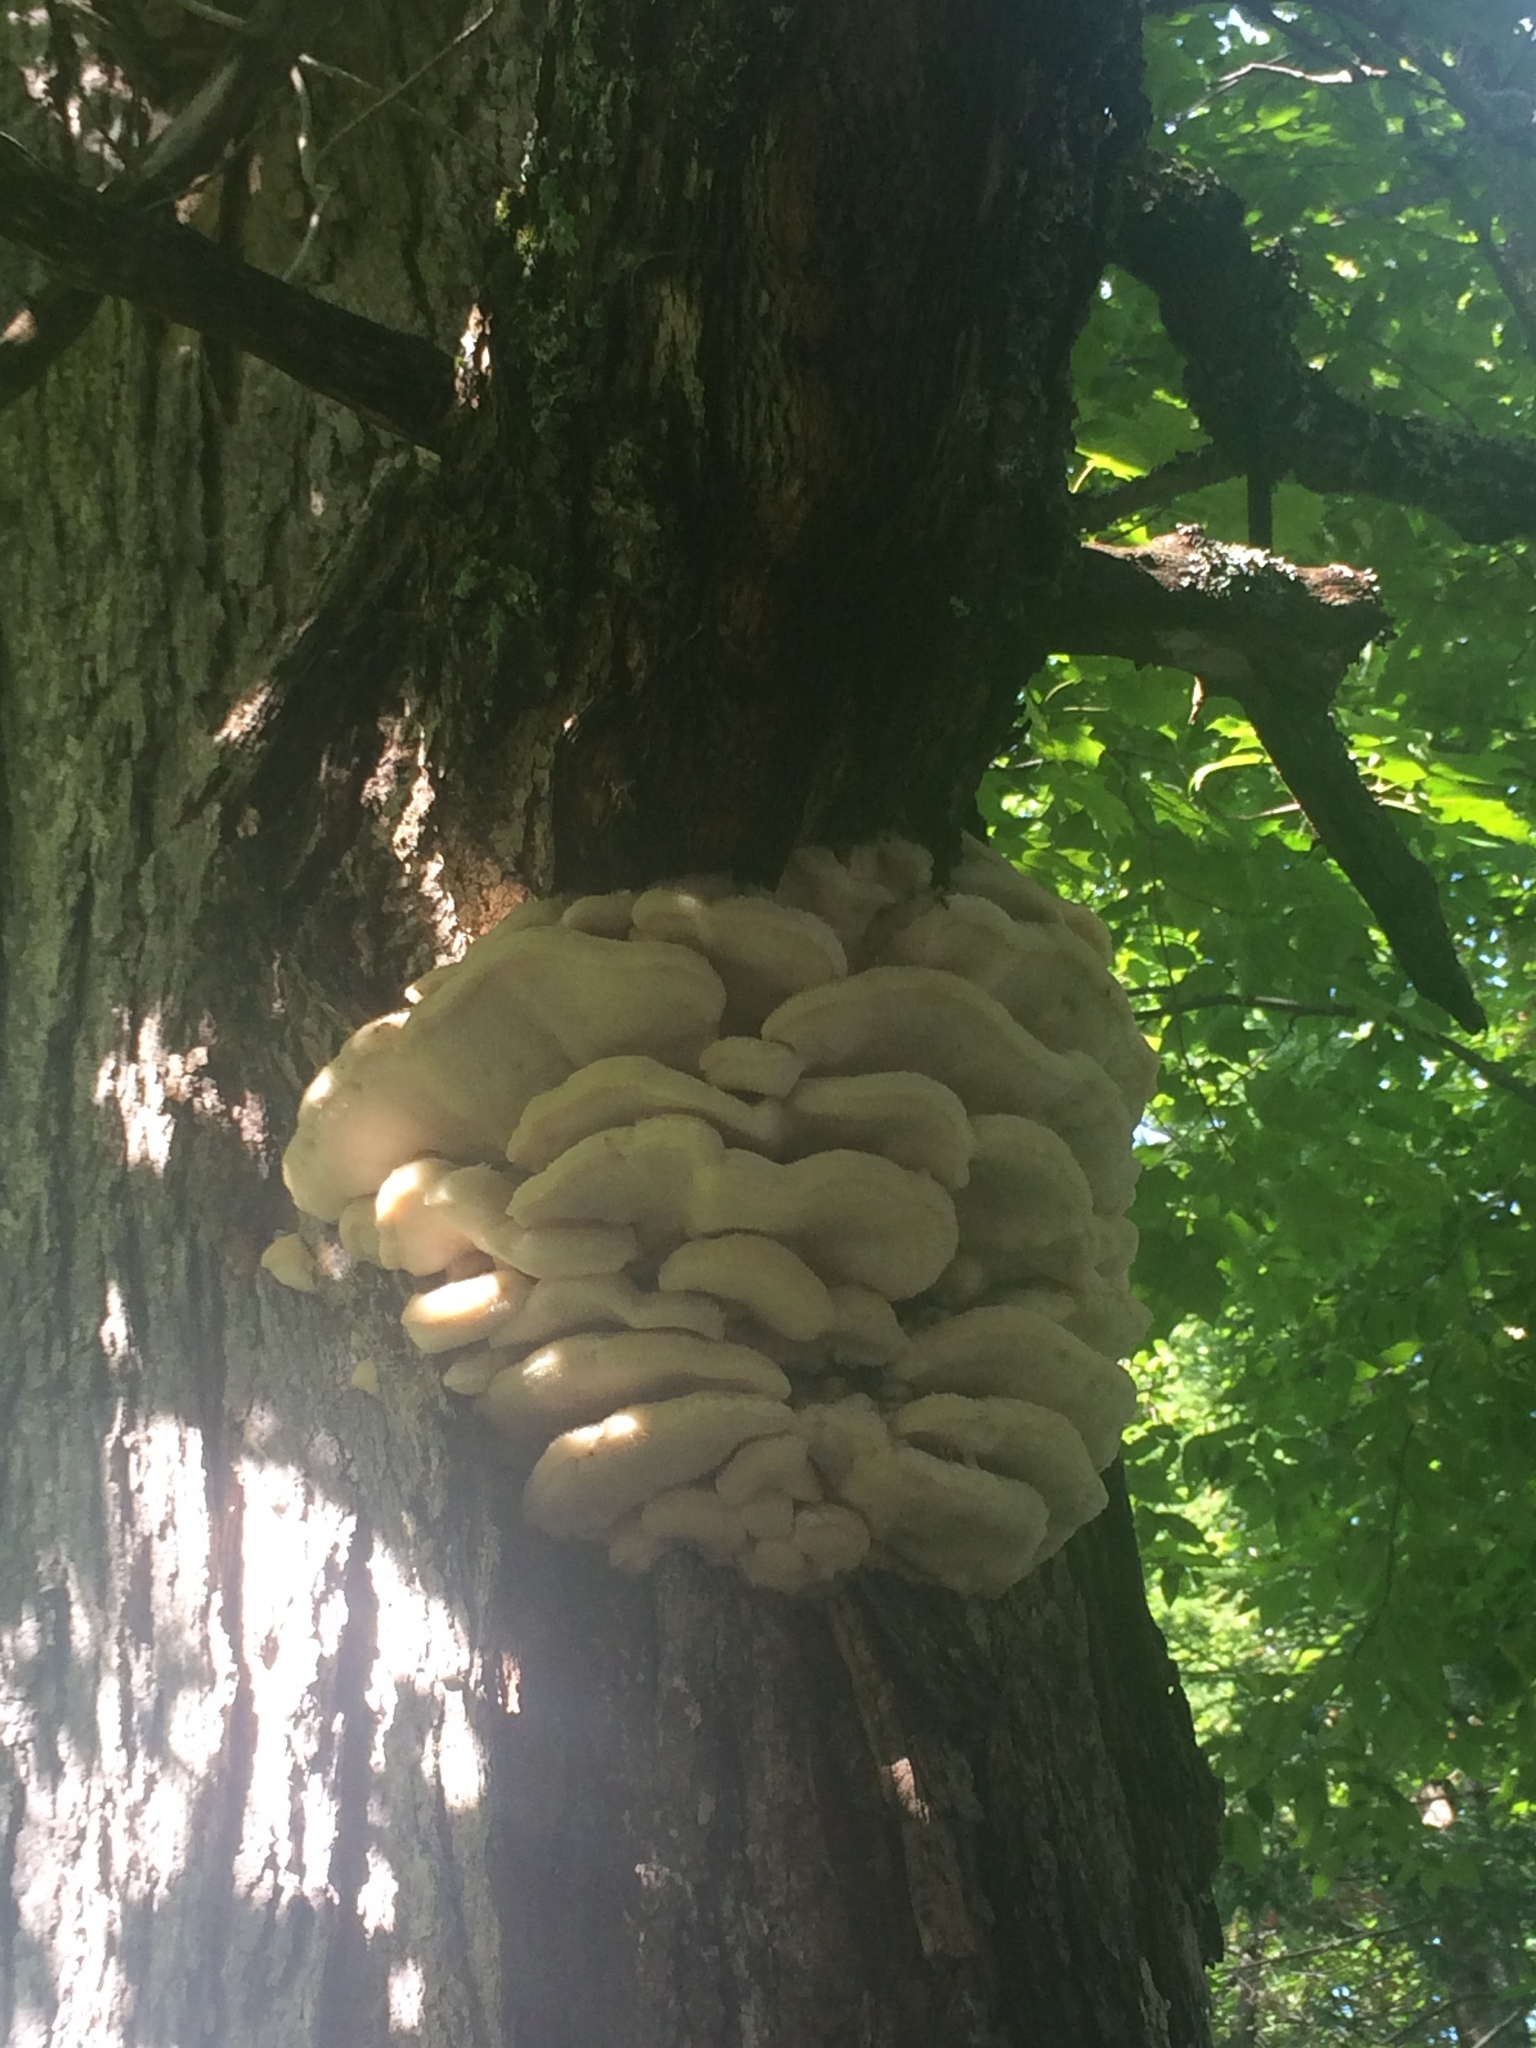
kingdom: Fungi
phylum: Basidiomycota
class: Agaricomycetes
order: Polyporales
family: Meruliaceae
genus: Climacodon
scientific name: Climacodon septentrionalis
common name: Northern tooth
